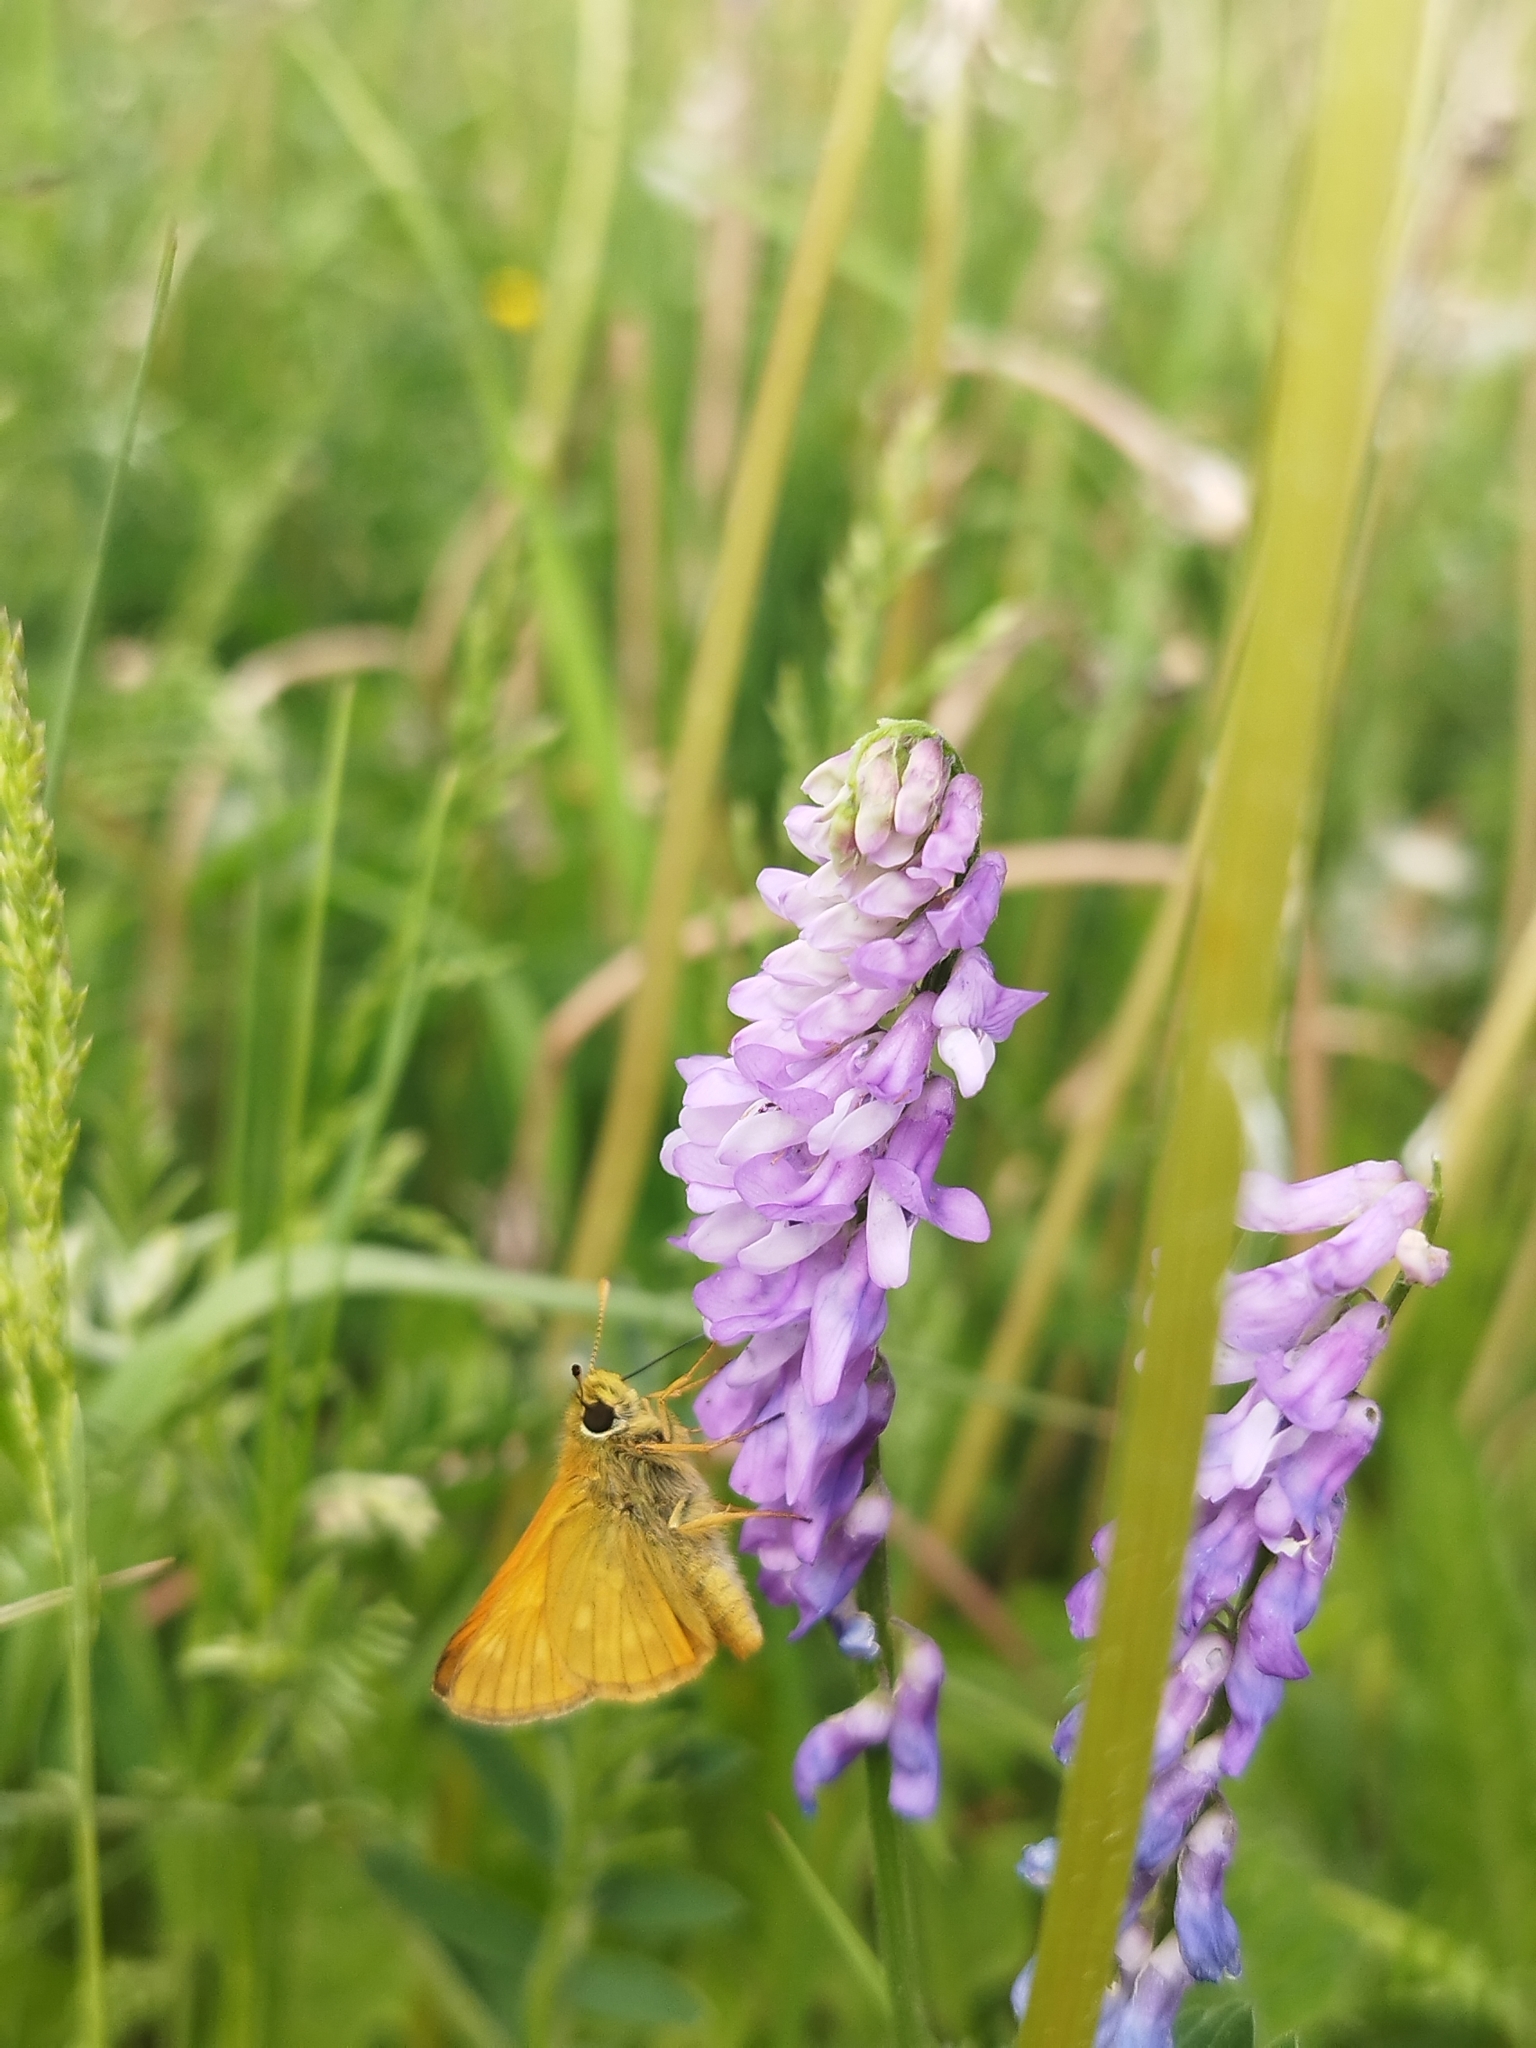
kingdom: Animalia
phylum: Arthropoda
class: Insecta
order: Lepidoptera
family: Hesperiidae
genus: Ochlodes
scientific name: Ochlodes venata
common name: Large skipper
